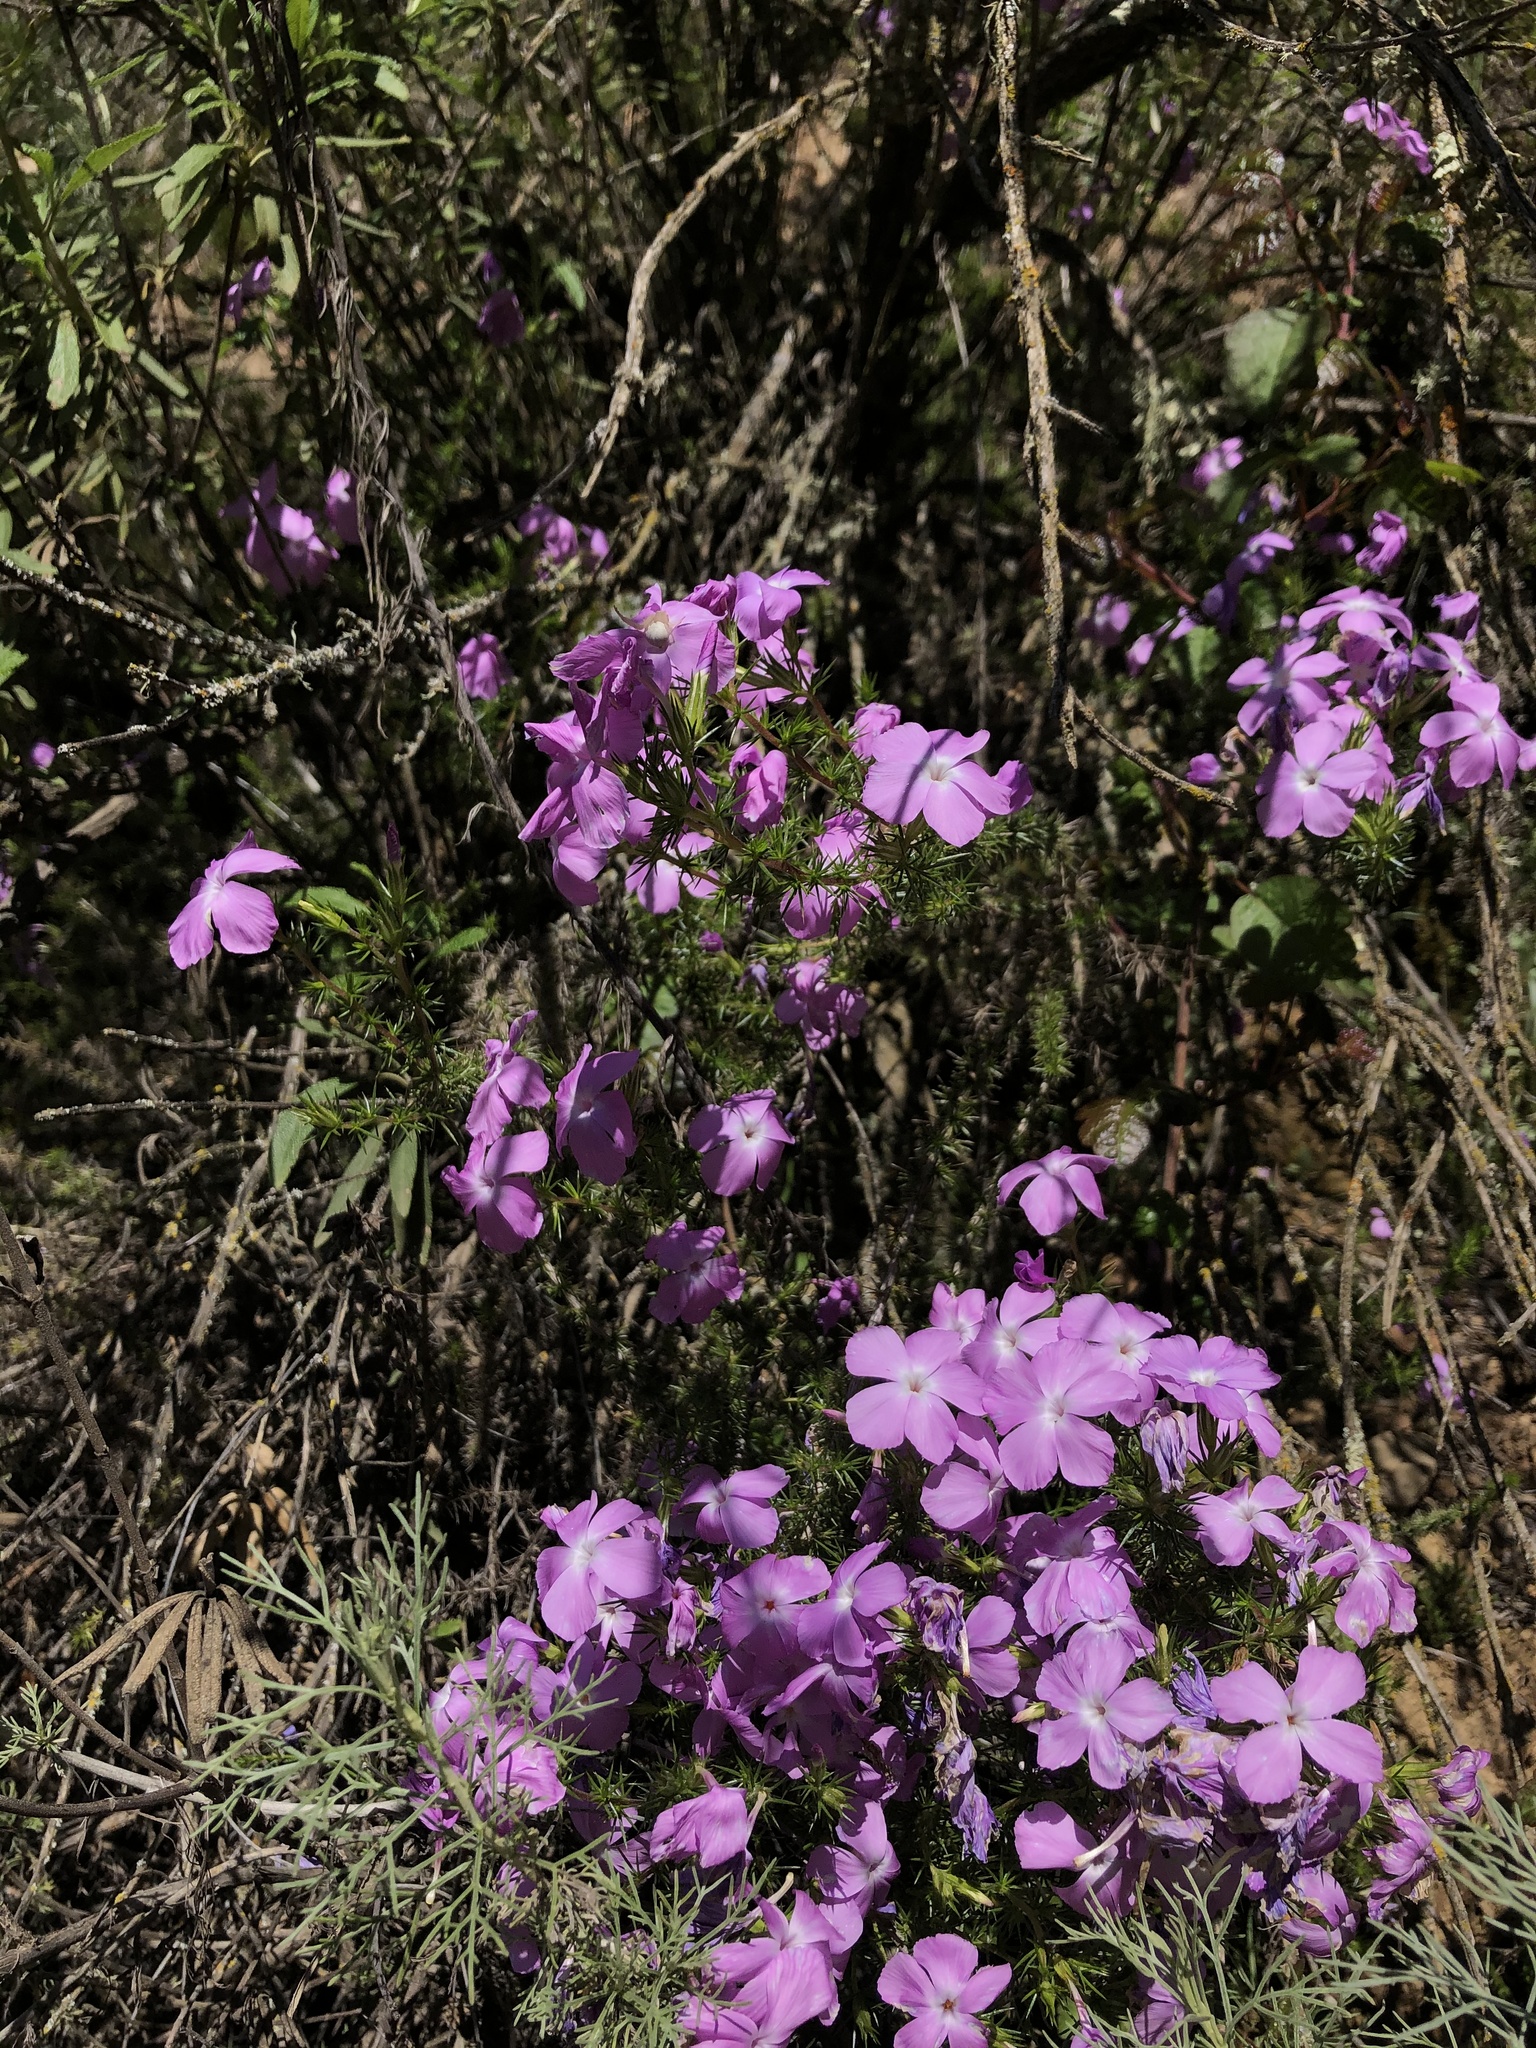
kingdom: Plantae
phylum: Tracheophyta
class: Magnoliopsida
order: Ericales
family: Polemoniaceae
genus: Linanthus
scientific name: Linanthus californicus
